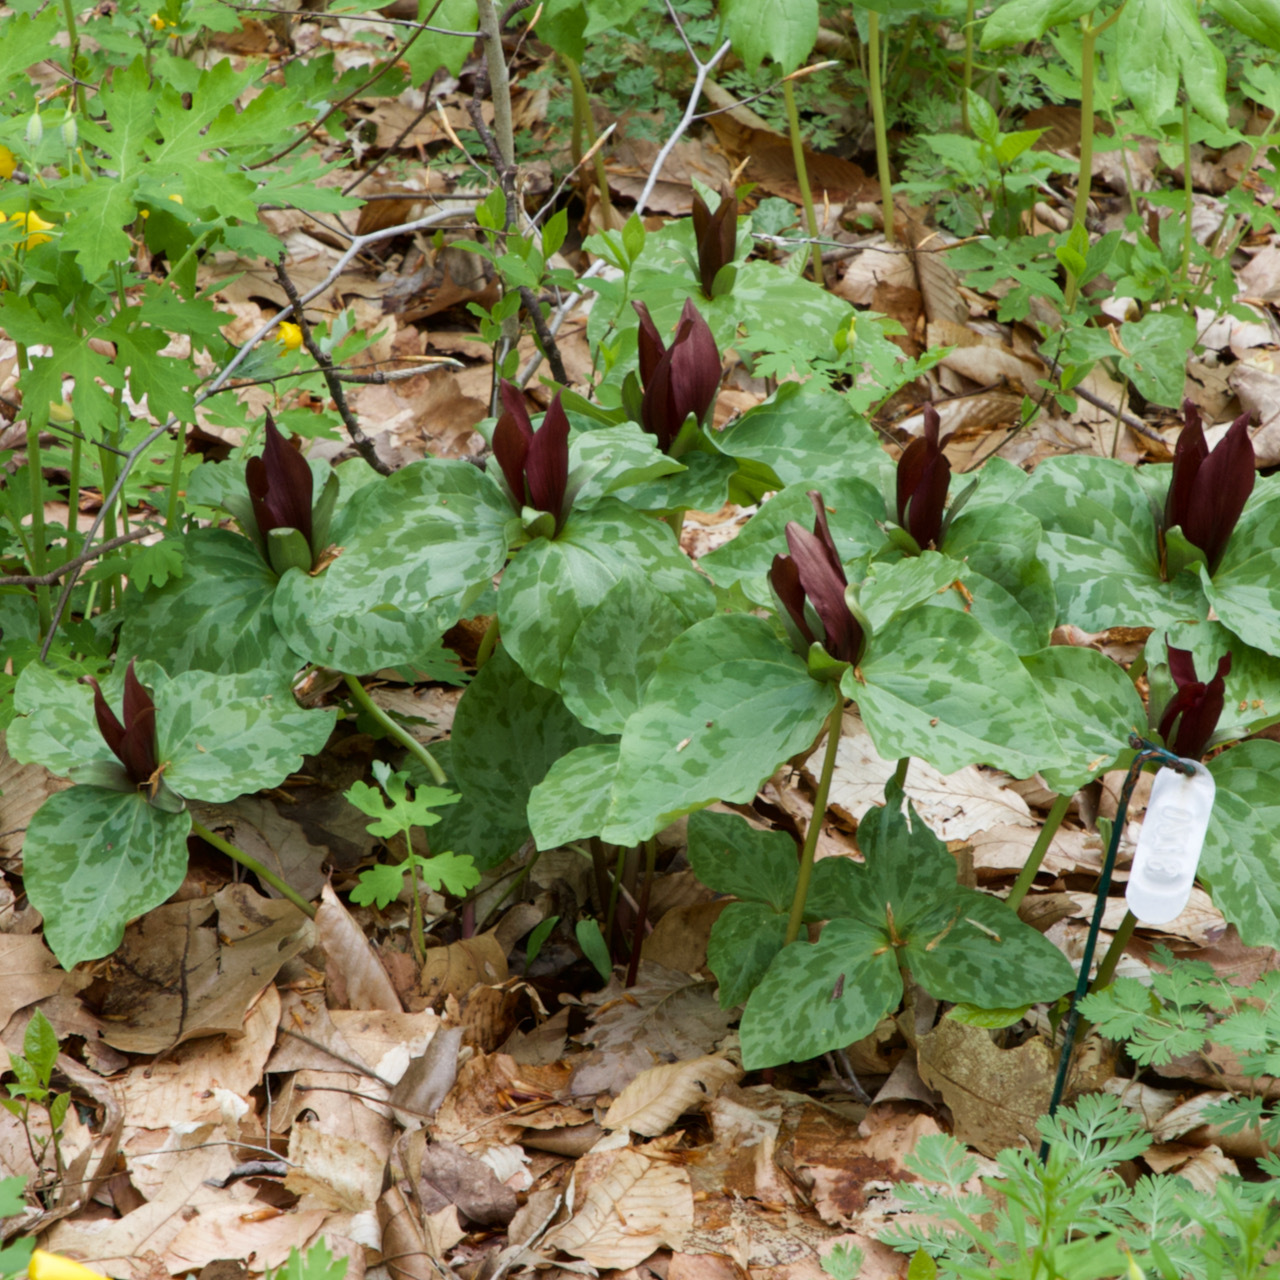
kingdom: Plantae
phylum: Tracheophyta
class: Liliopsida
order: Liliales
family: Melanthiaceae
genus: Trillium
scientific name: Trillium cuneatum
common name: Cuneate trillium
